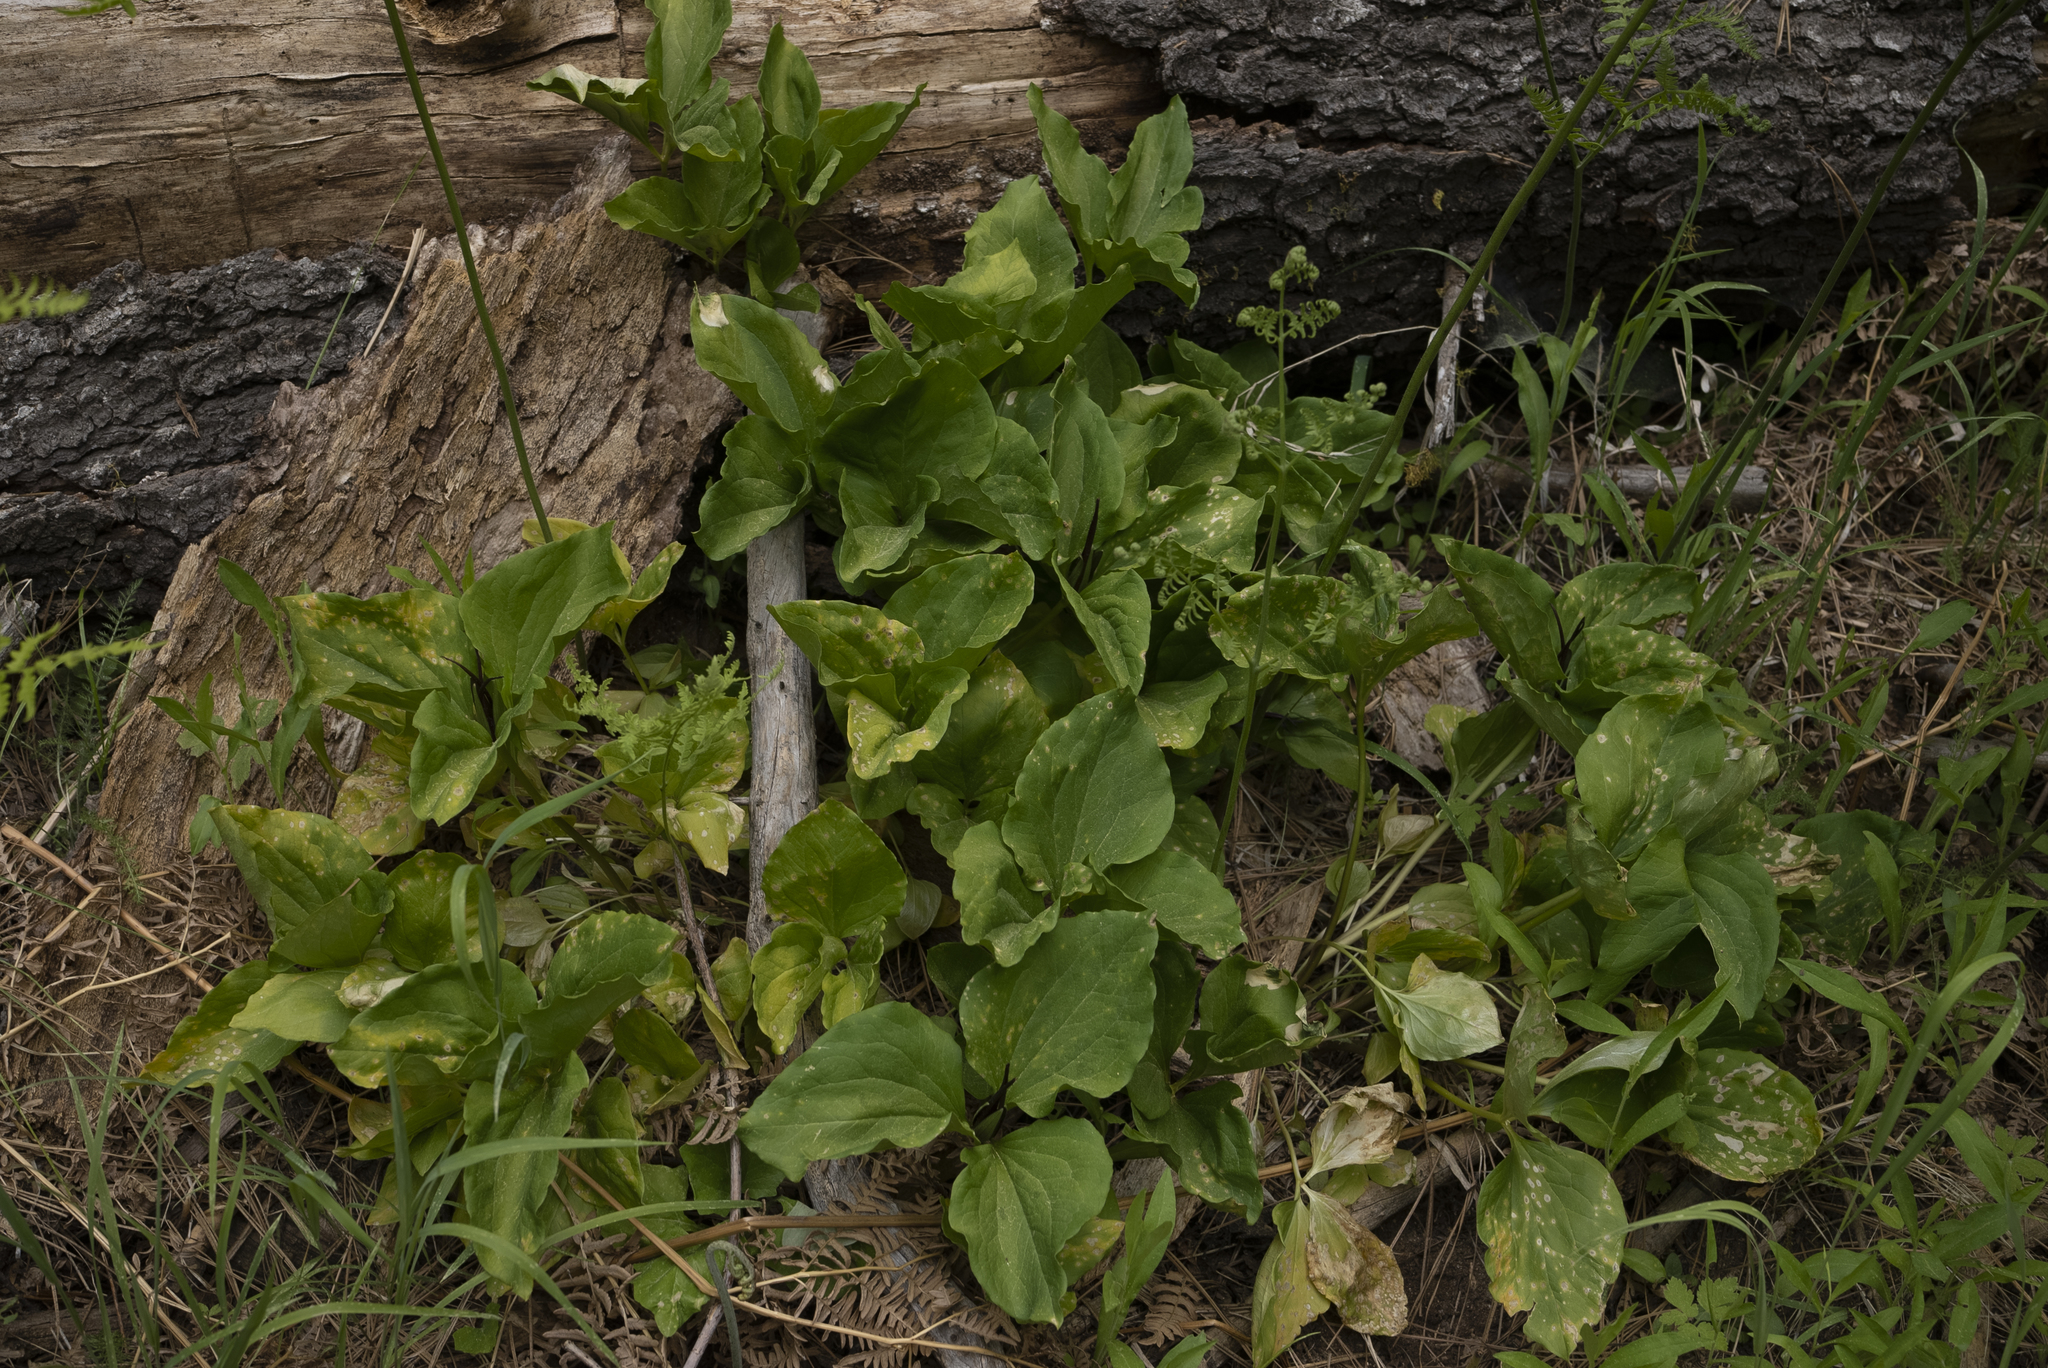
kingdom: Plantae
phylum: Tracheophyta
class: Liliopsida
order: Liliales
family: Melanthiaceae
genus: Trillium
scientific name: Trillium angustipetalum
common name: Narrow-petaled trillium
